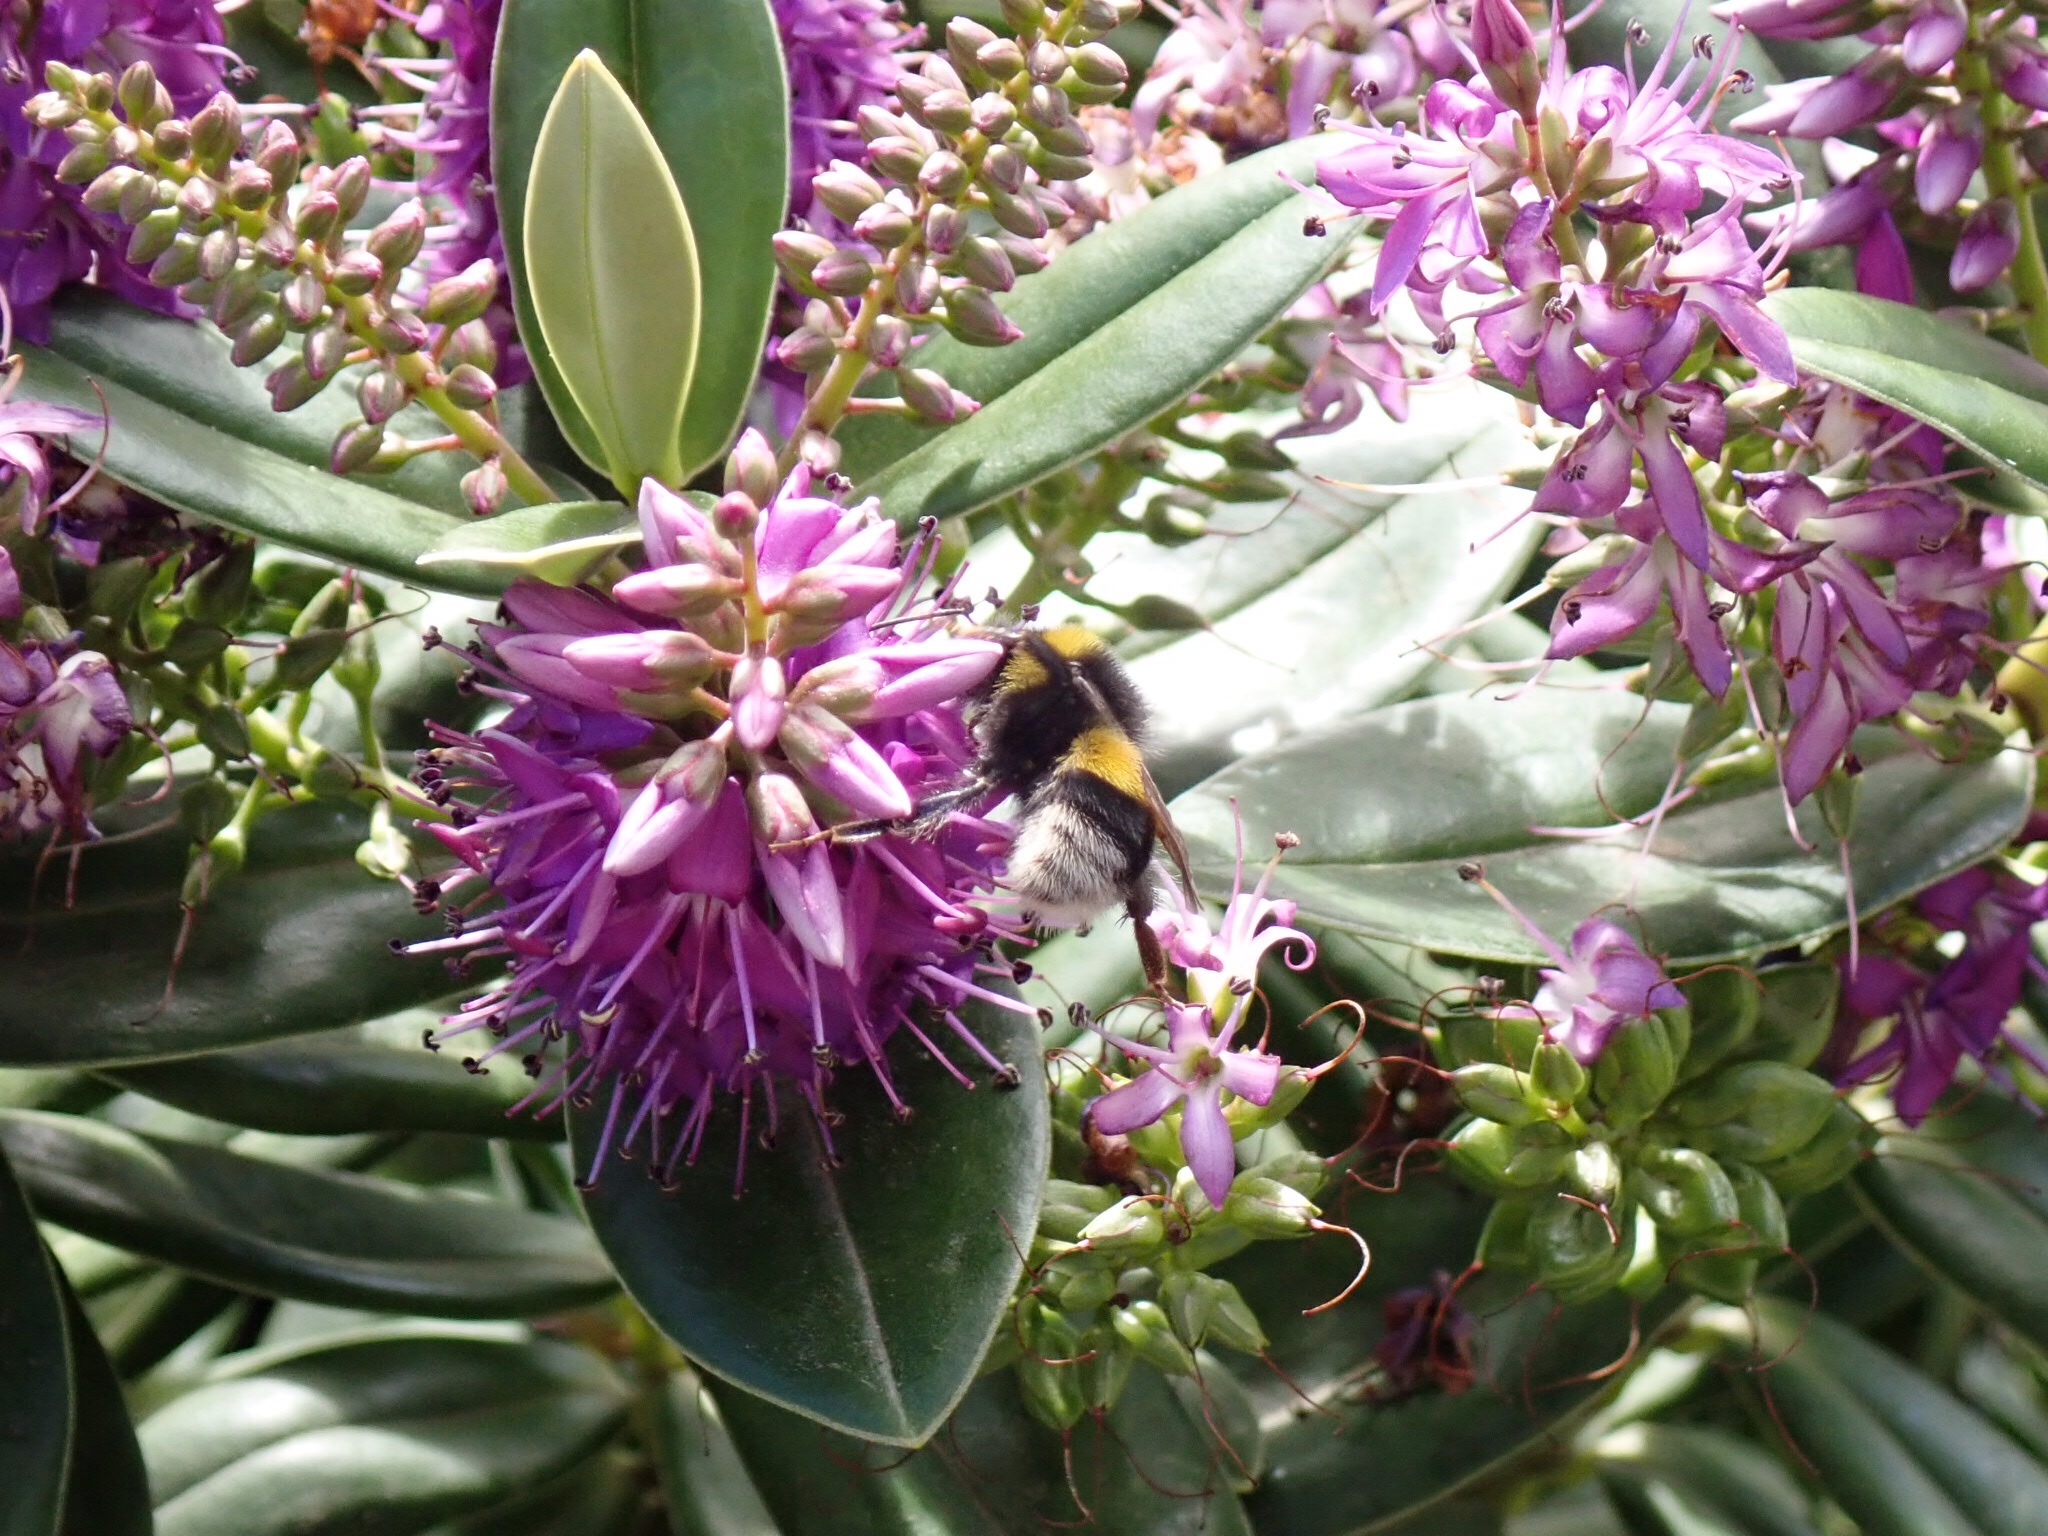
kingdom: Animalia
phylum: Arthropoda
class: Insecta
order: Hymenoptera
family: Apidae
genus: Bombus
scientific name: Bombus terrestris
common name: Buff-tailed bumblebee
